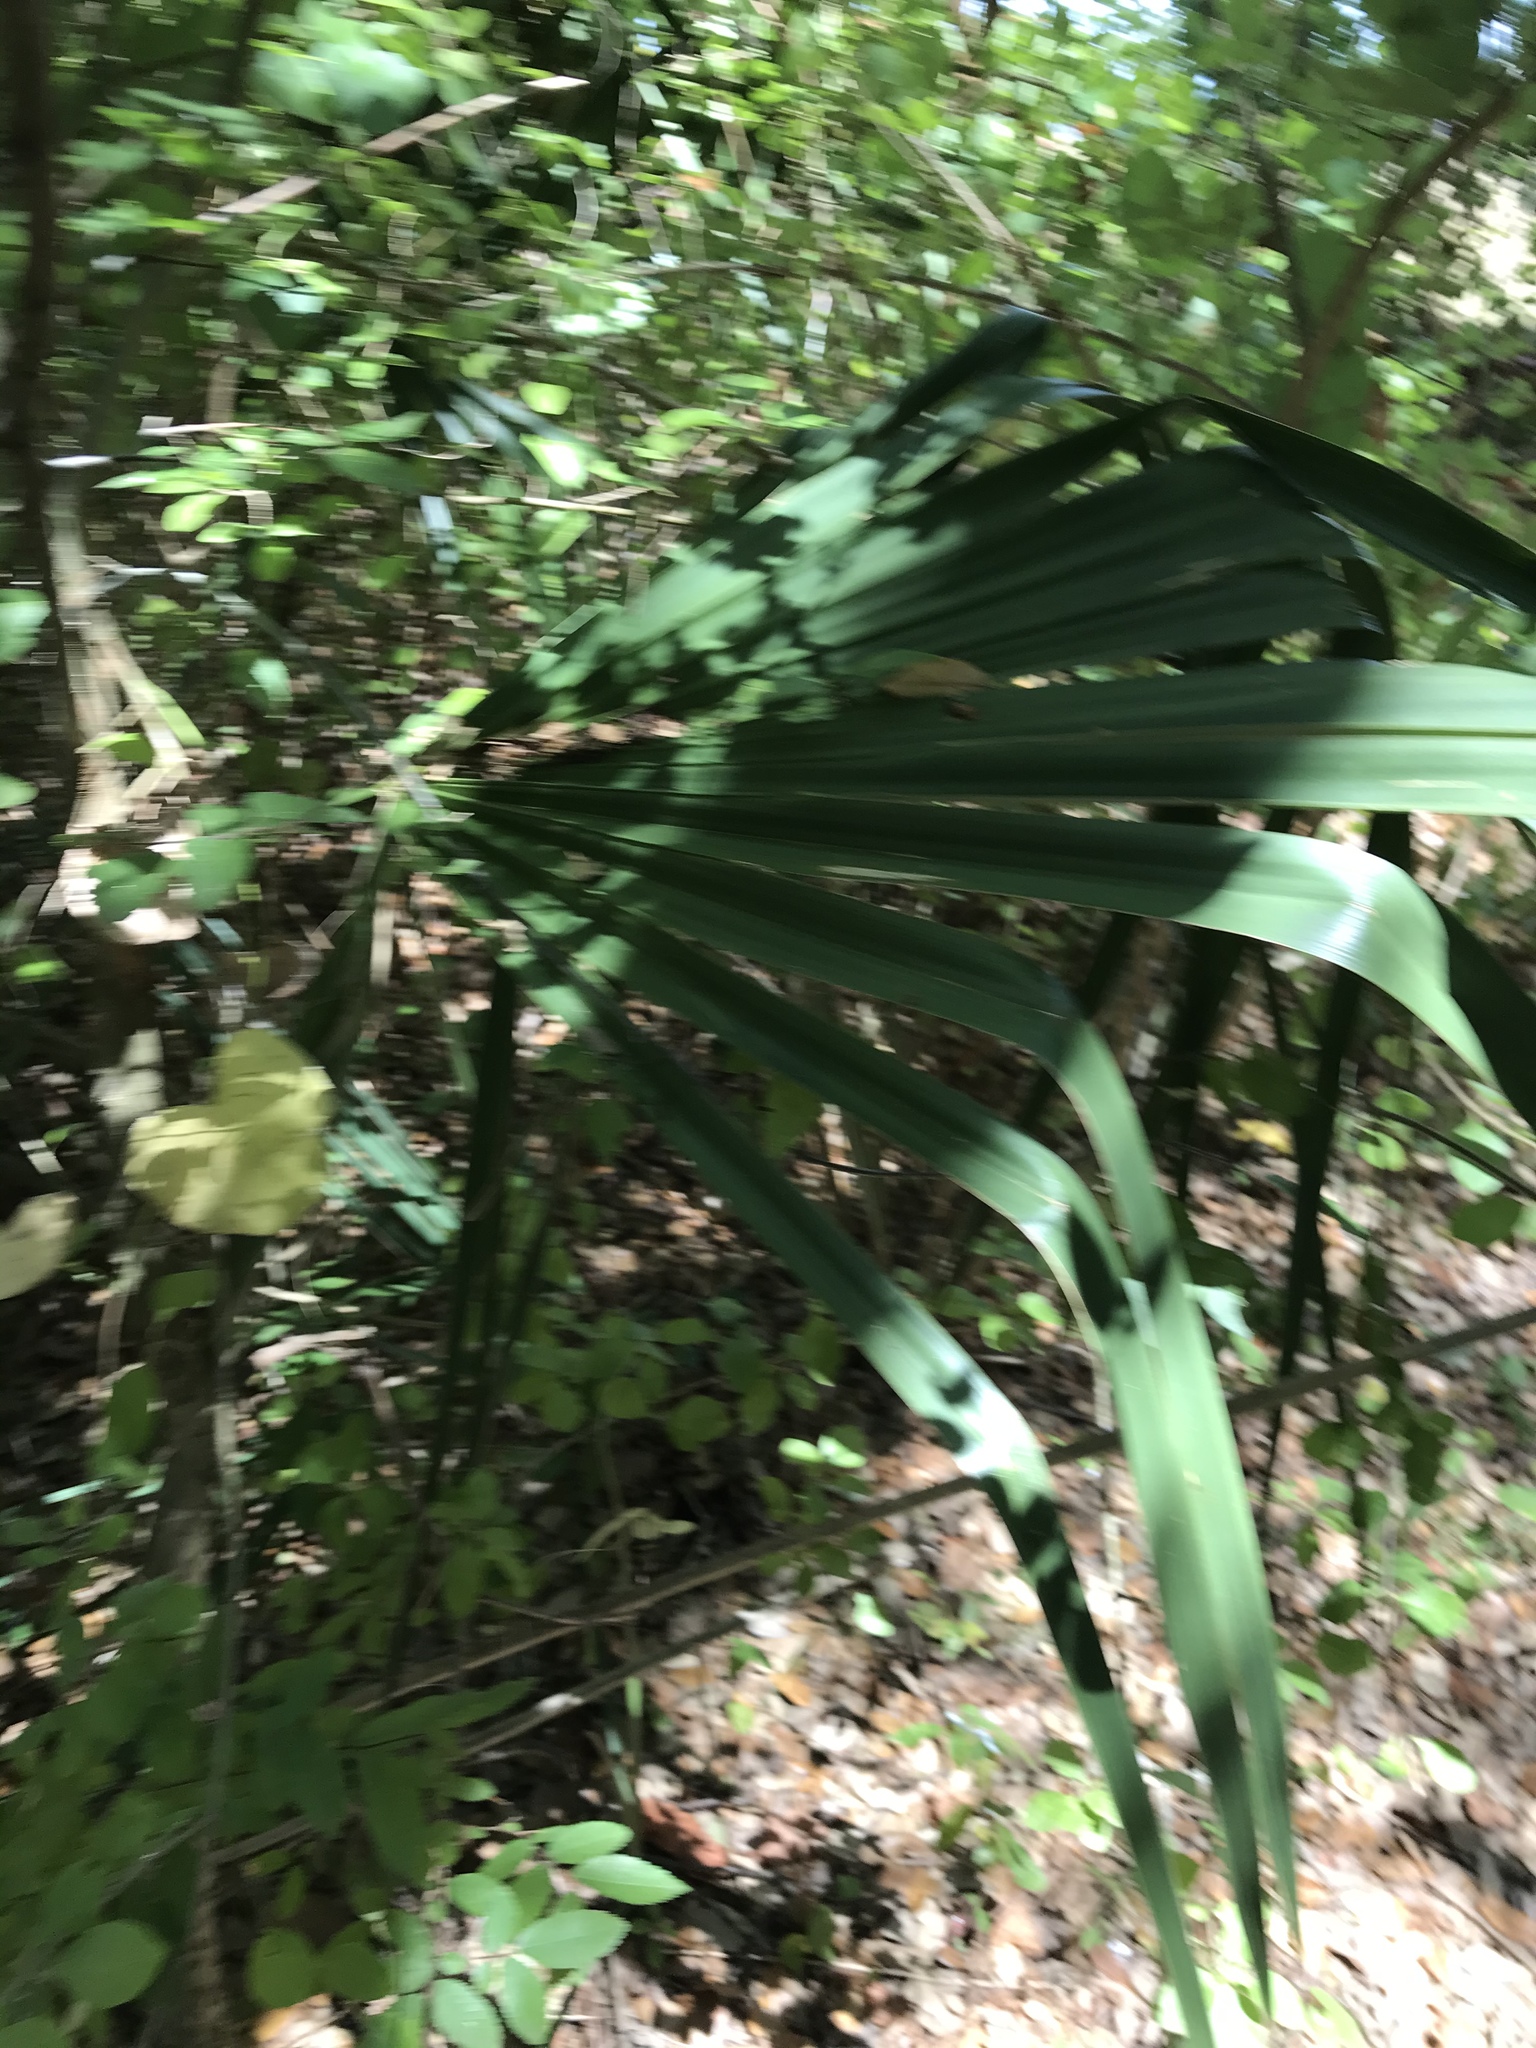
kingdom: Plantae
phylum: Tracheophyta
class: Liliopsida
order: Arecales
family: Arecaceae
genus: Sabal
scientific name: Sabal minor
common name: Dwarf palmetto
